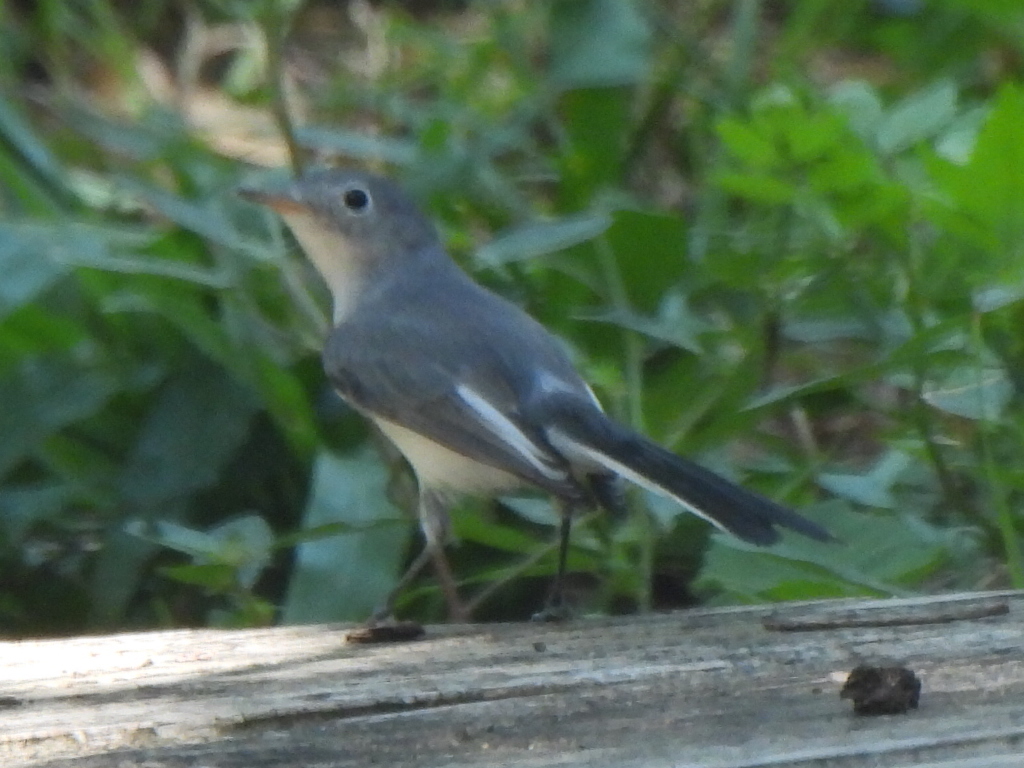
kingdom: Animalia
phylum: Chordata
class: Aves
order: Passeriformes
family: Polioptilidae
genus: Polioptila
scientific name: Polioptila caerulea
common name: Blue-gray gnatcatcher
